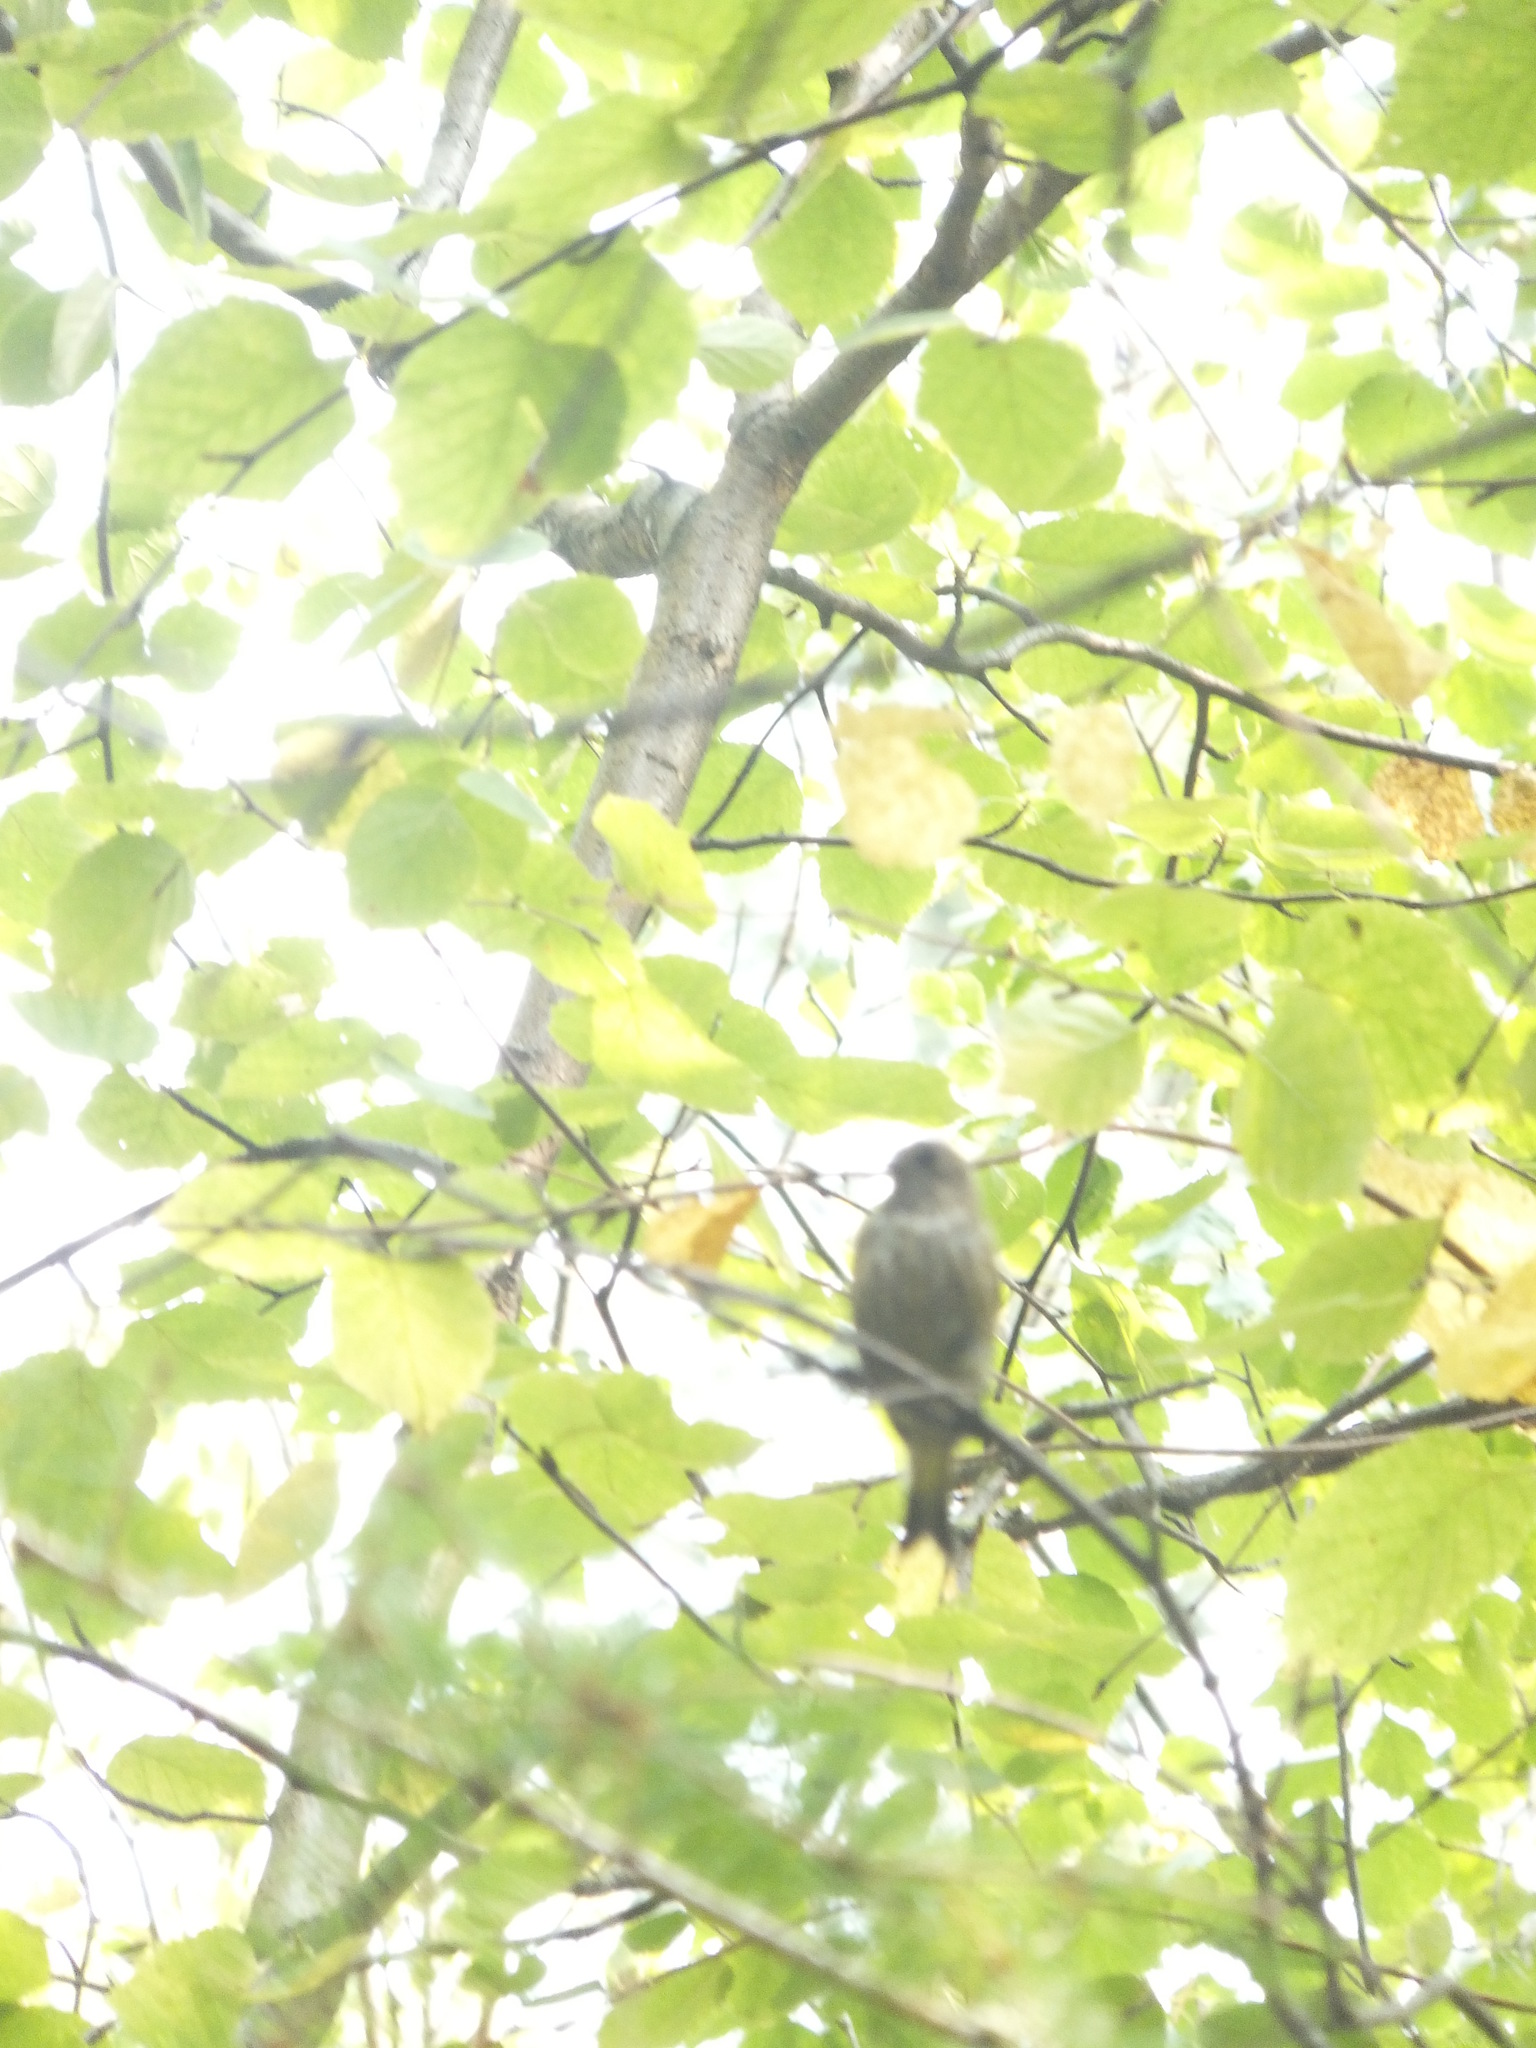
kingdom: Animalia
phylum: Chordata
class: Aves
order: Passeriformes
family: Fringillidae
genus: Spinus
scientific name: Spinus pinus
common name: Pine siskin
